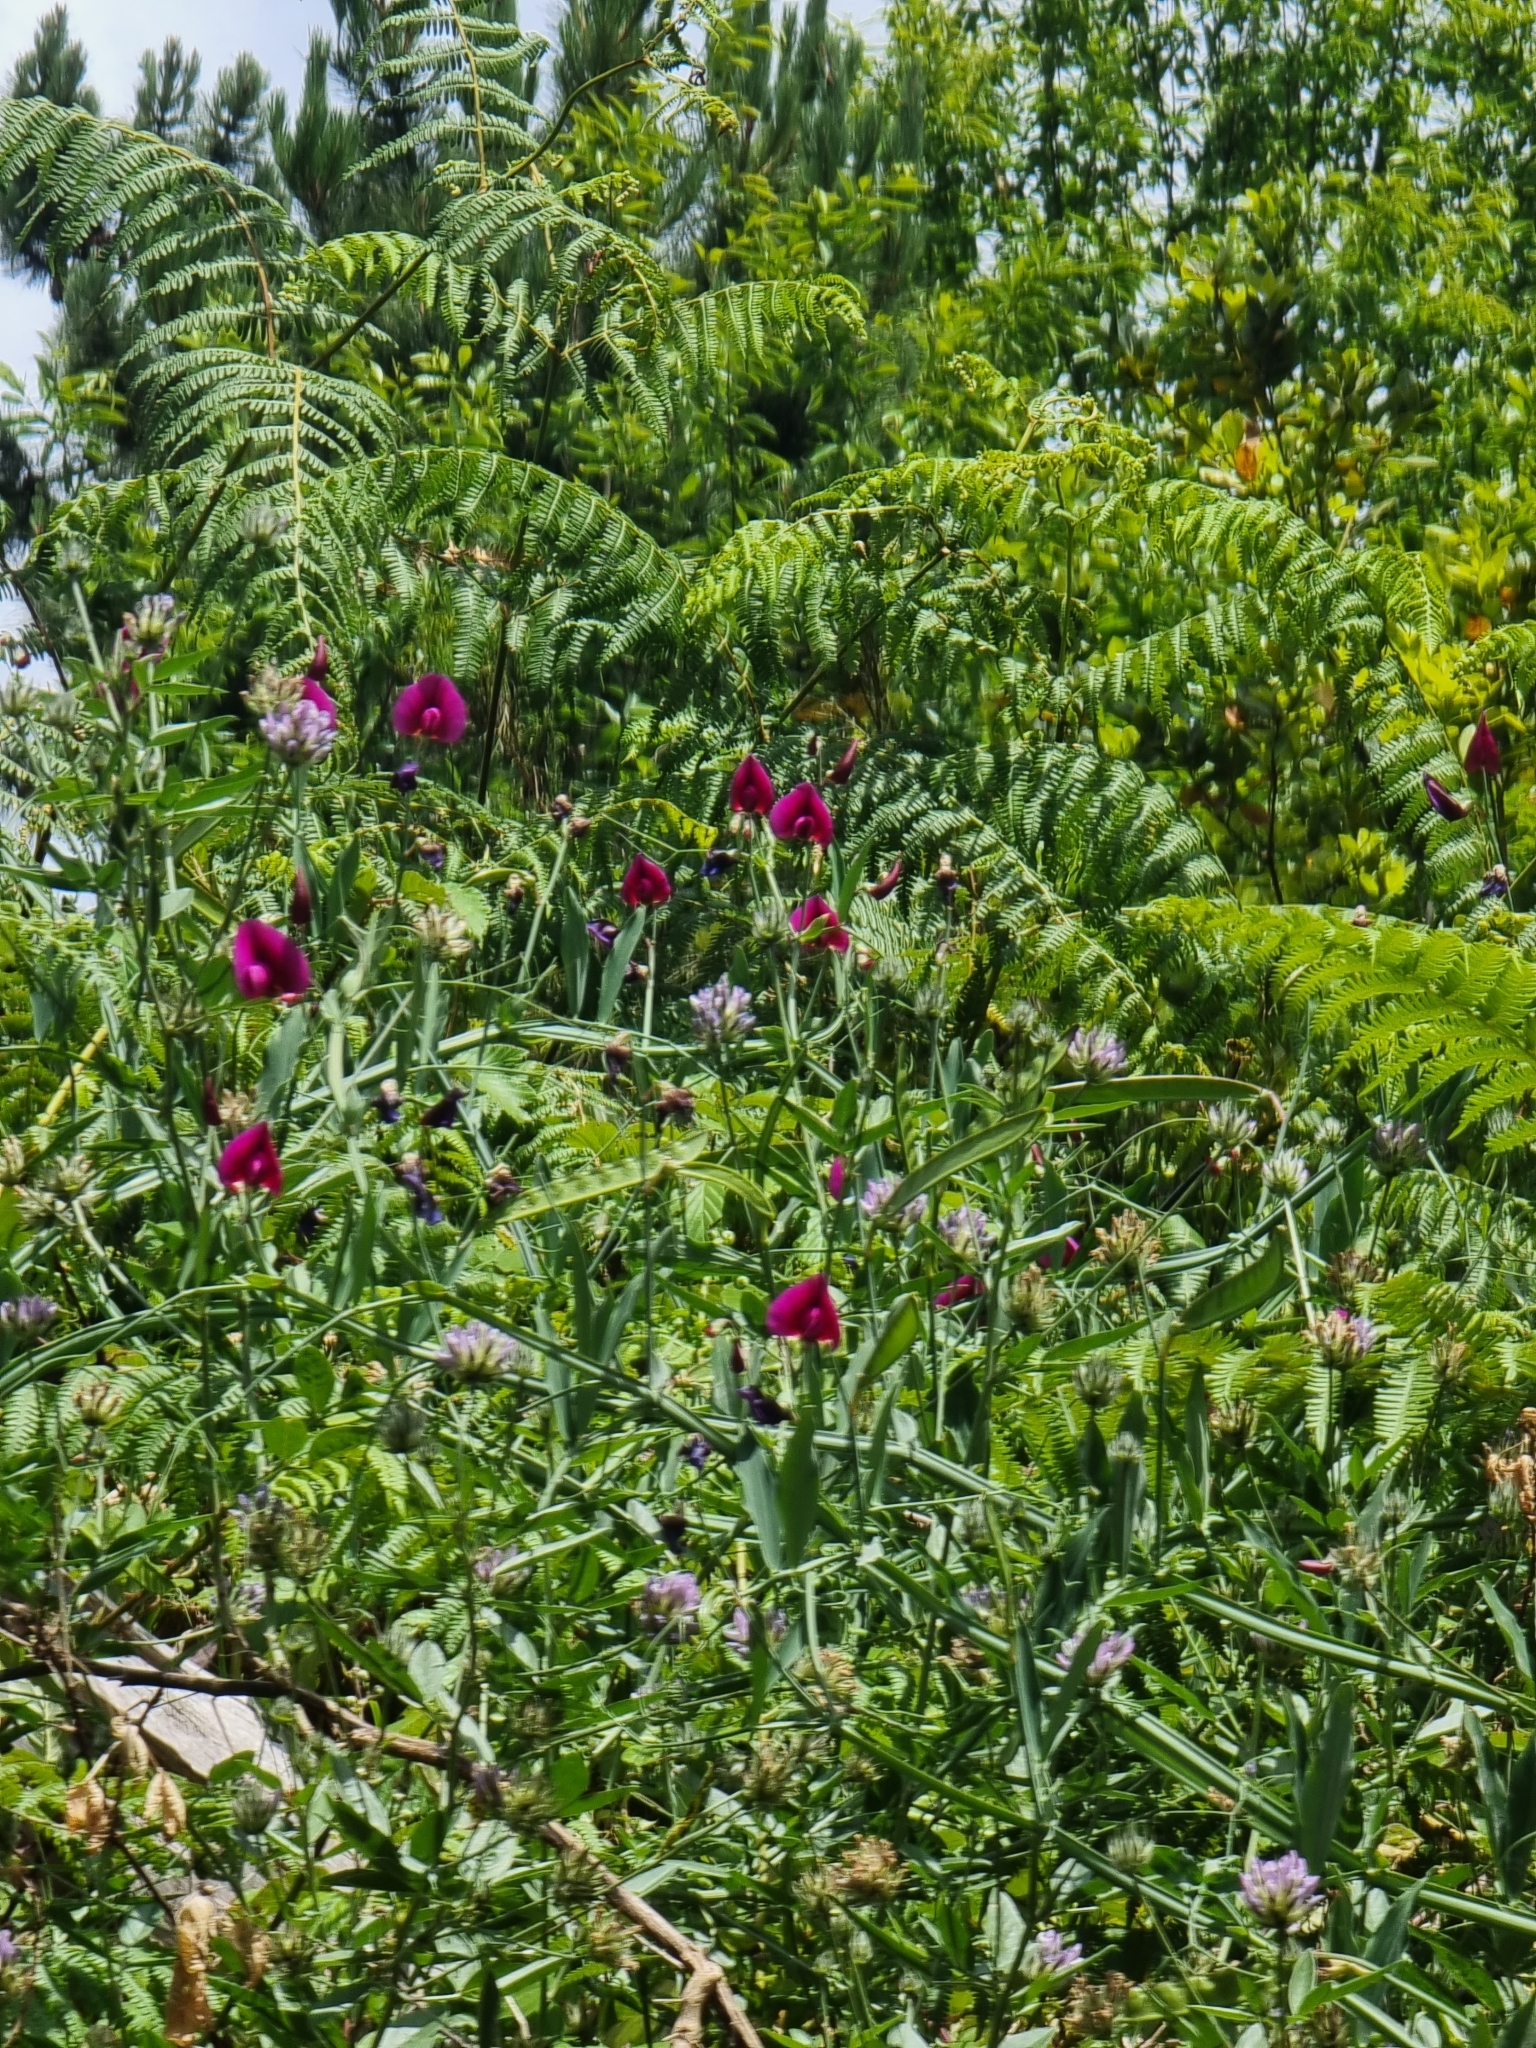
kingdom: Plantae
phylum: Tracheophyta
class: Magnoliopsida
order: Fabales
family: Fabaceae
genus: Lathyrus
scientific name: Lathyrus tingitanus
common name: Tangier pea
